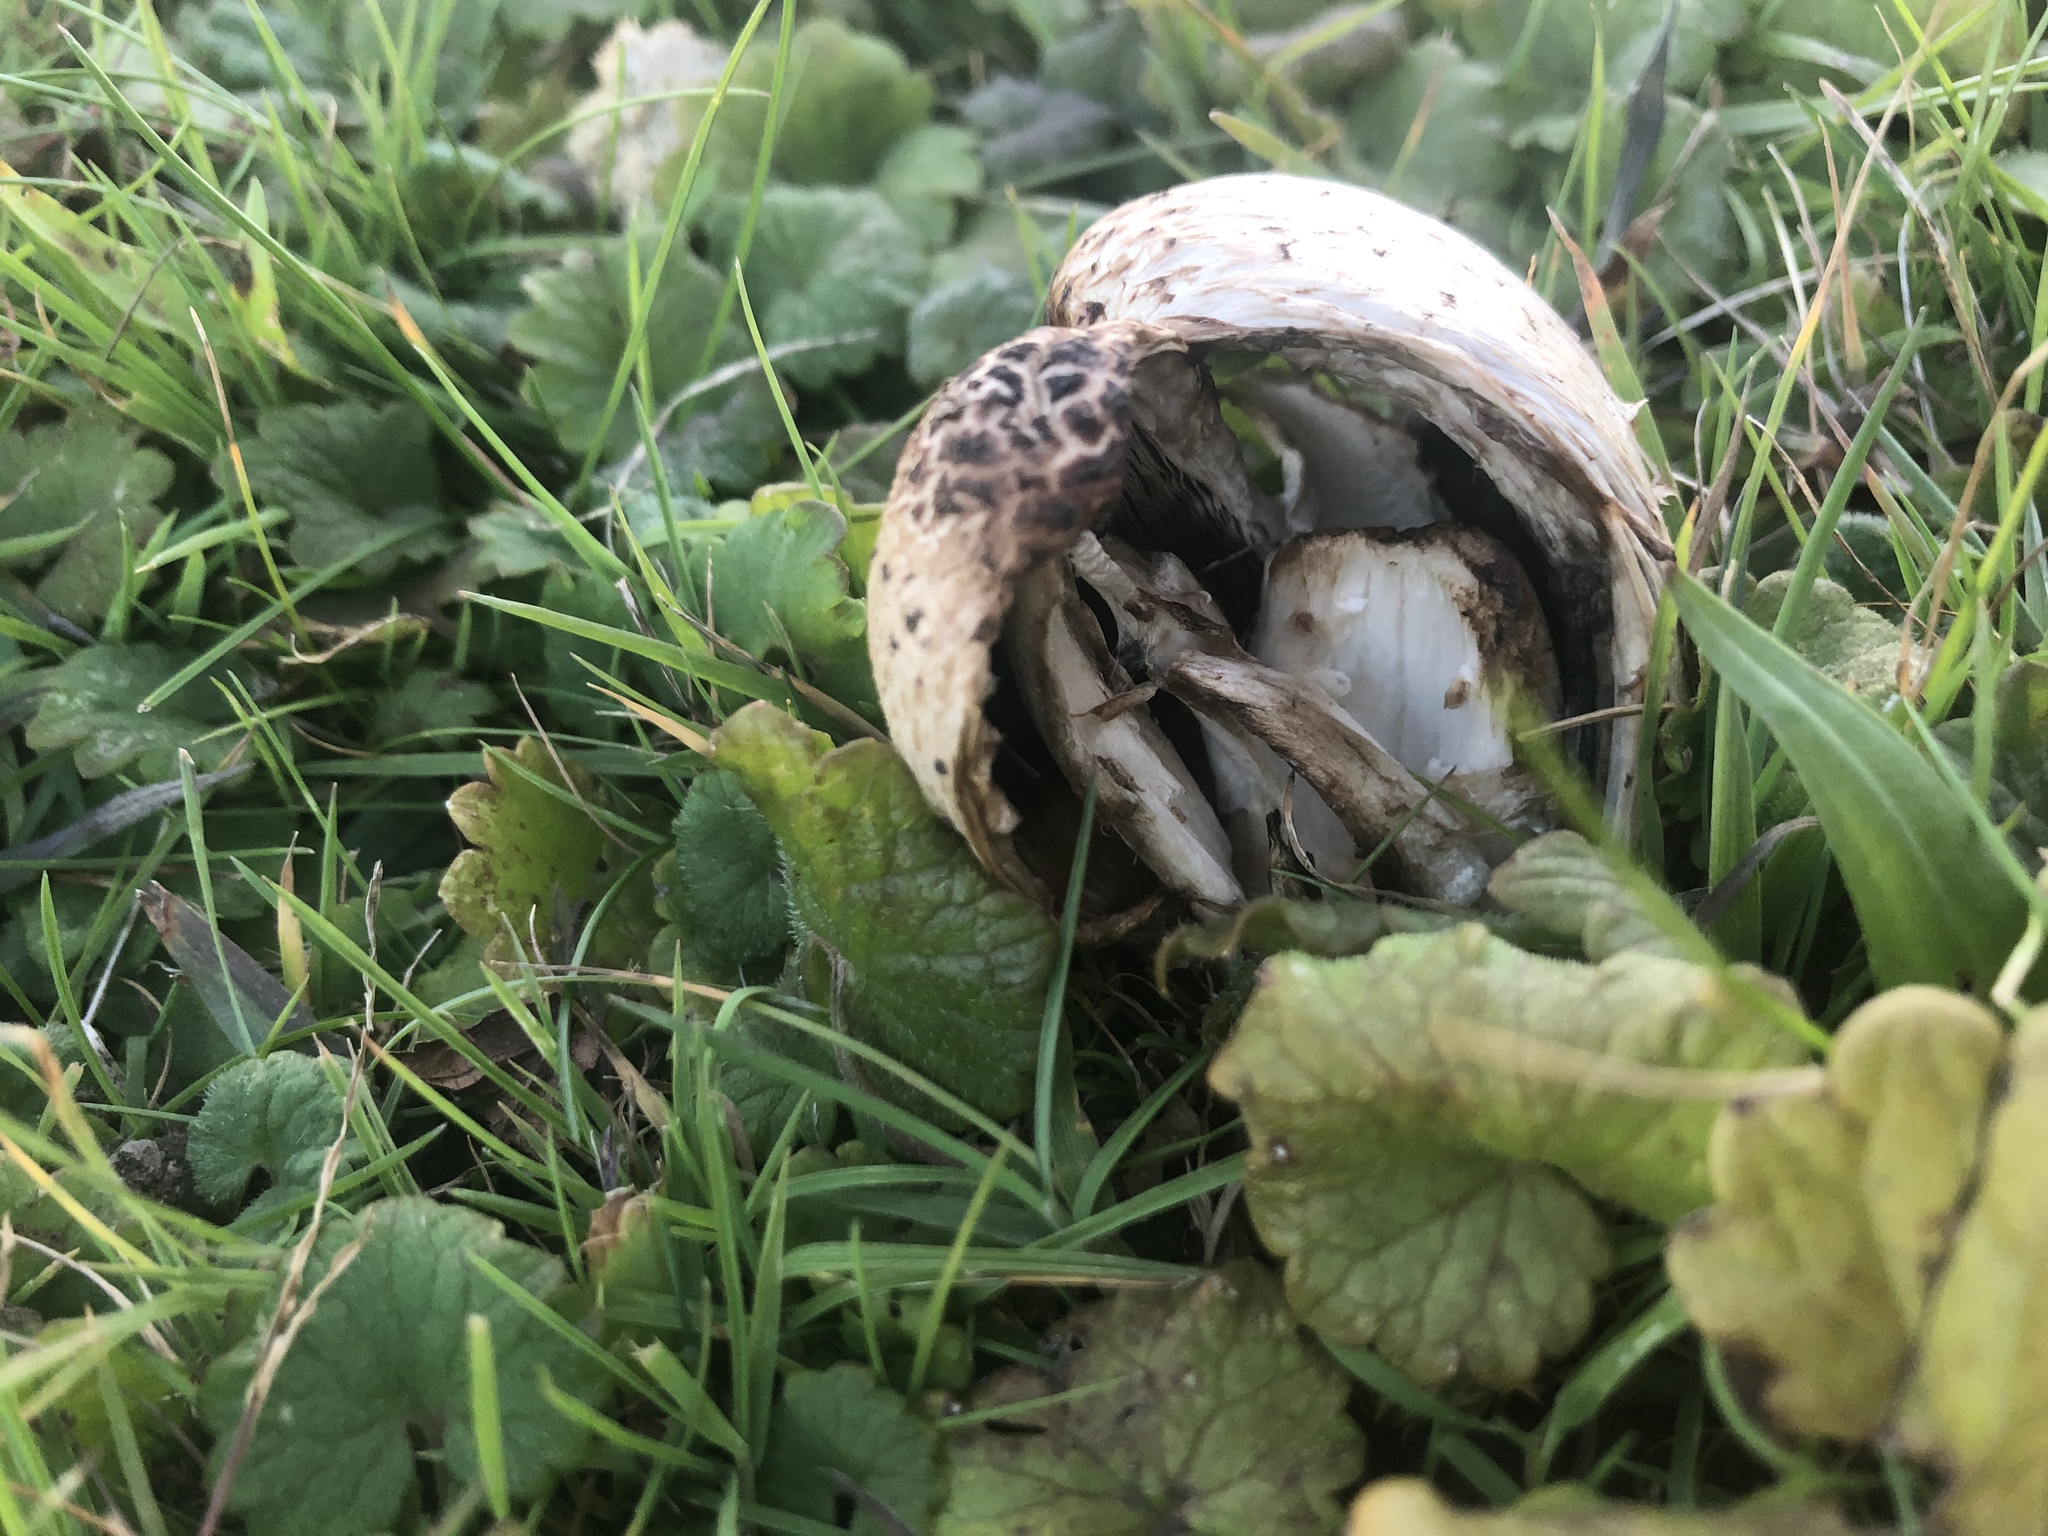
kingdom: Fungi
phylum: Basidiomycota
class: Agaricomycetes
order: Agaricales
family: Agaricaceae
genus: Coprinus
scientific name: Coprinus comatus
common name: Lawyer's wig
